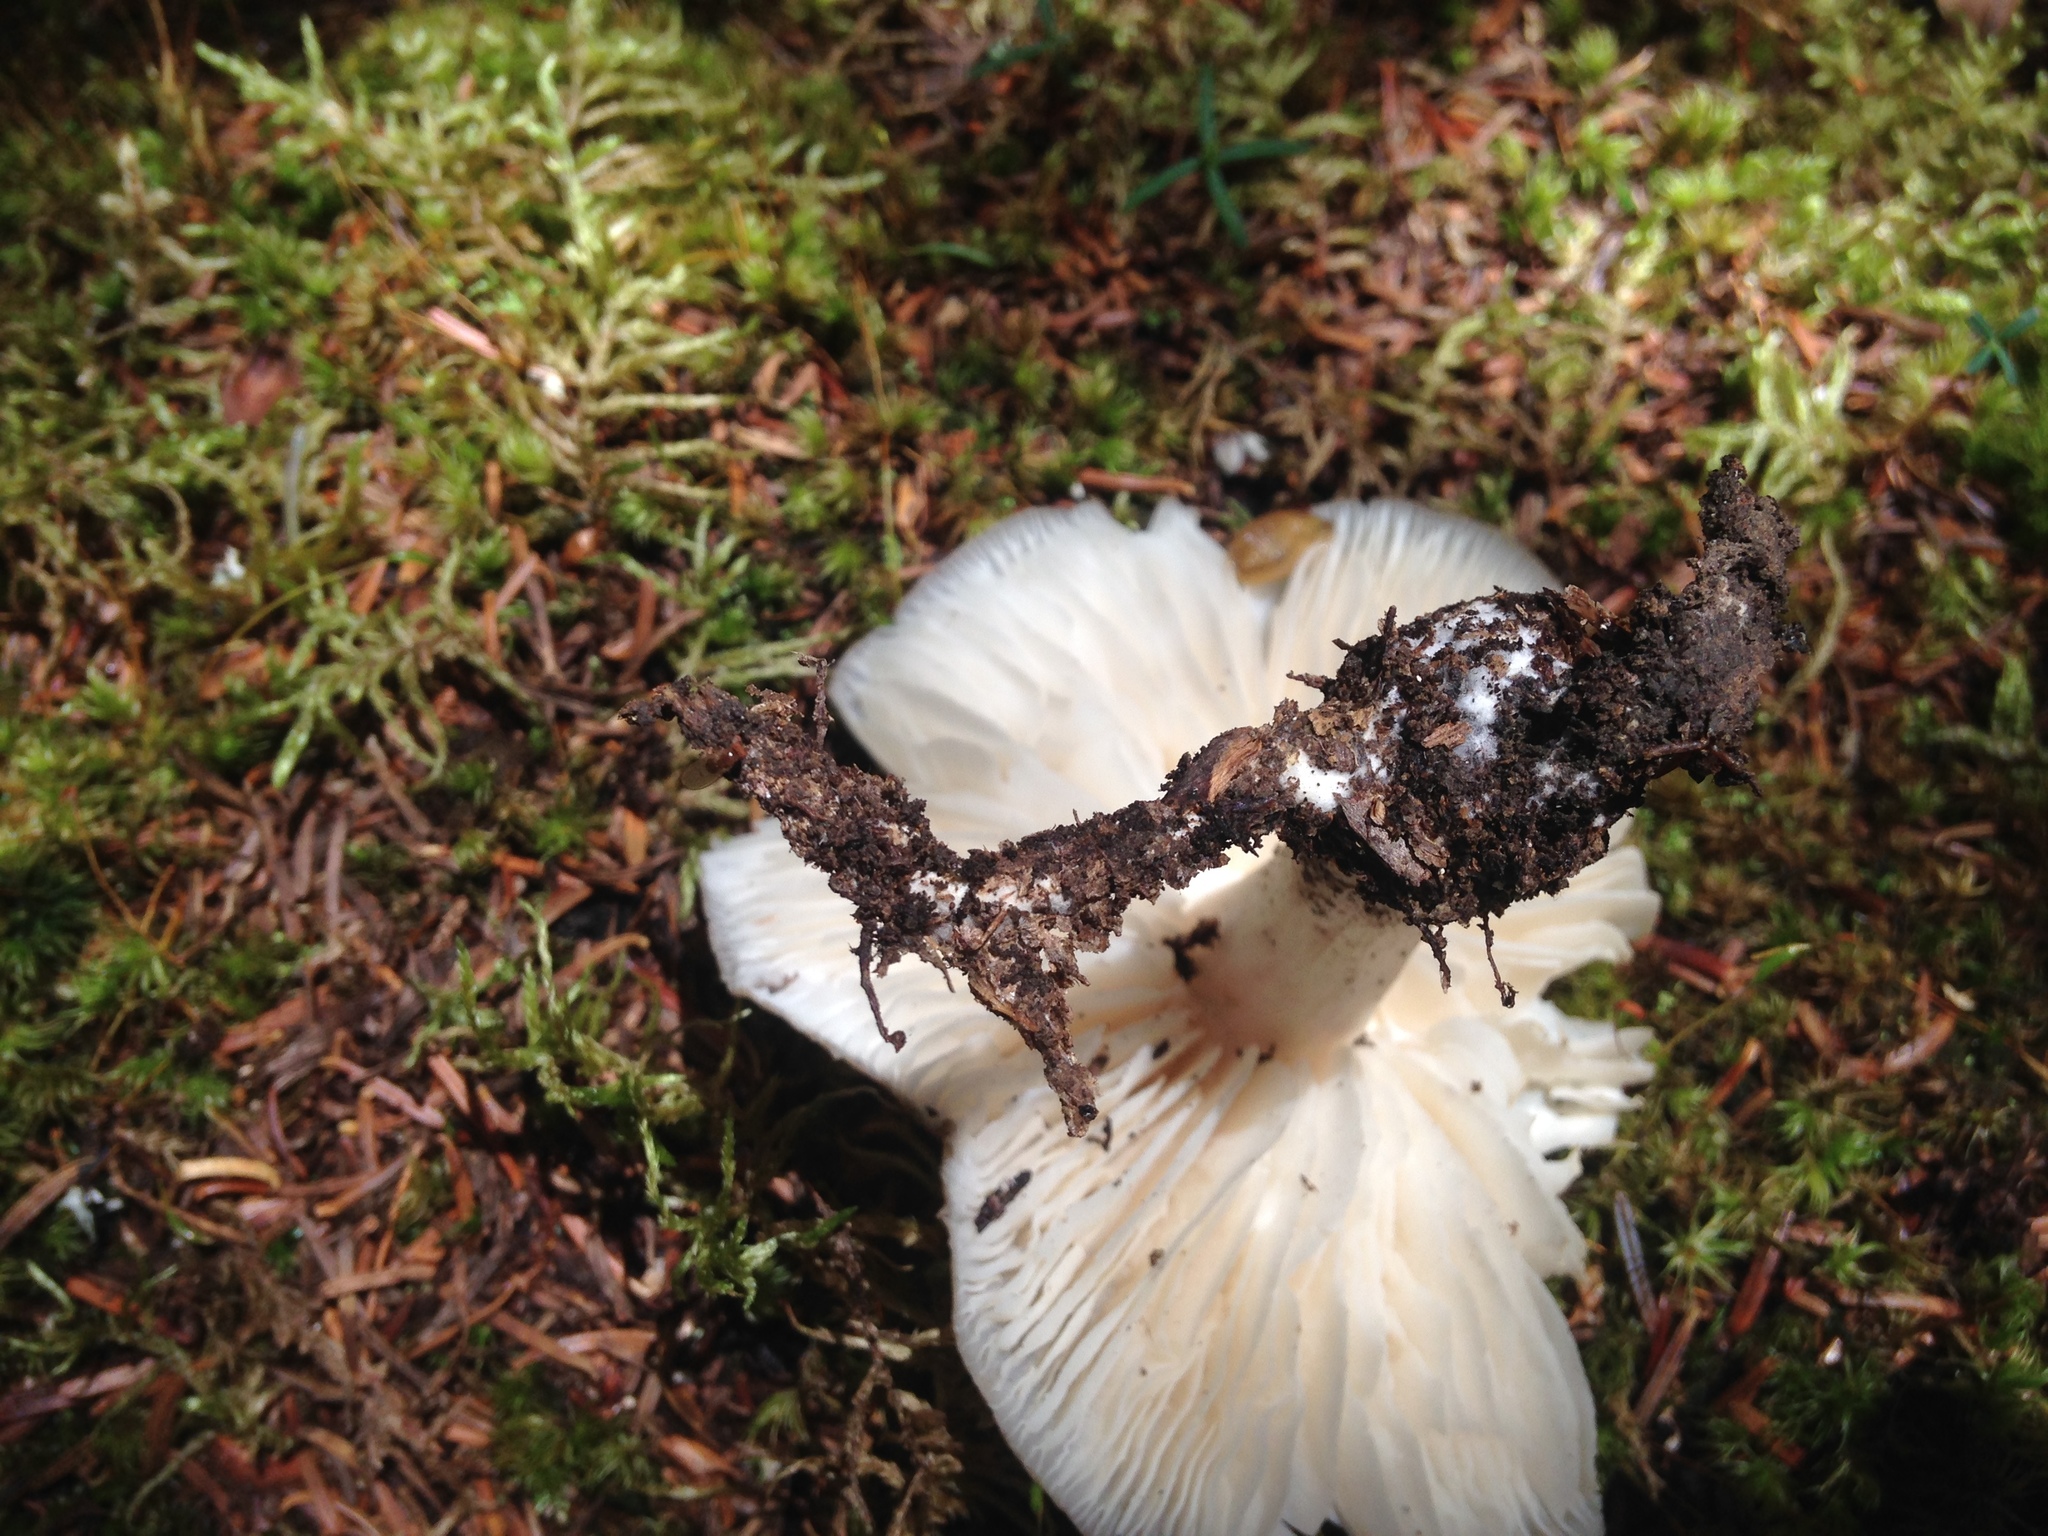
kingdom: Fungi
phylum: Basidiomycota
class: Agaricomycetes
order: Agaricales
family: Tricholomataceae
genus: Megacollybia
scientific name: Megacollybia rodmanii
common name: Eastern american platterful mushroom
